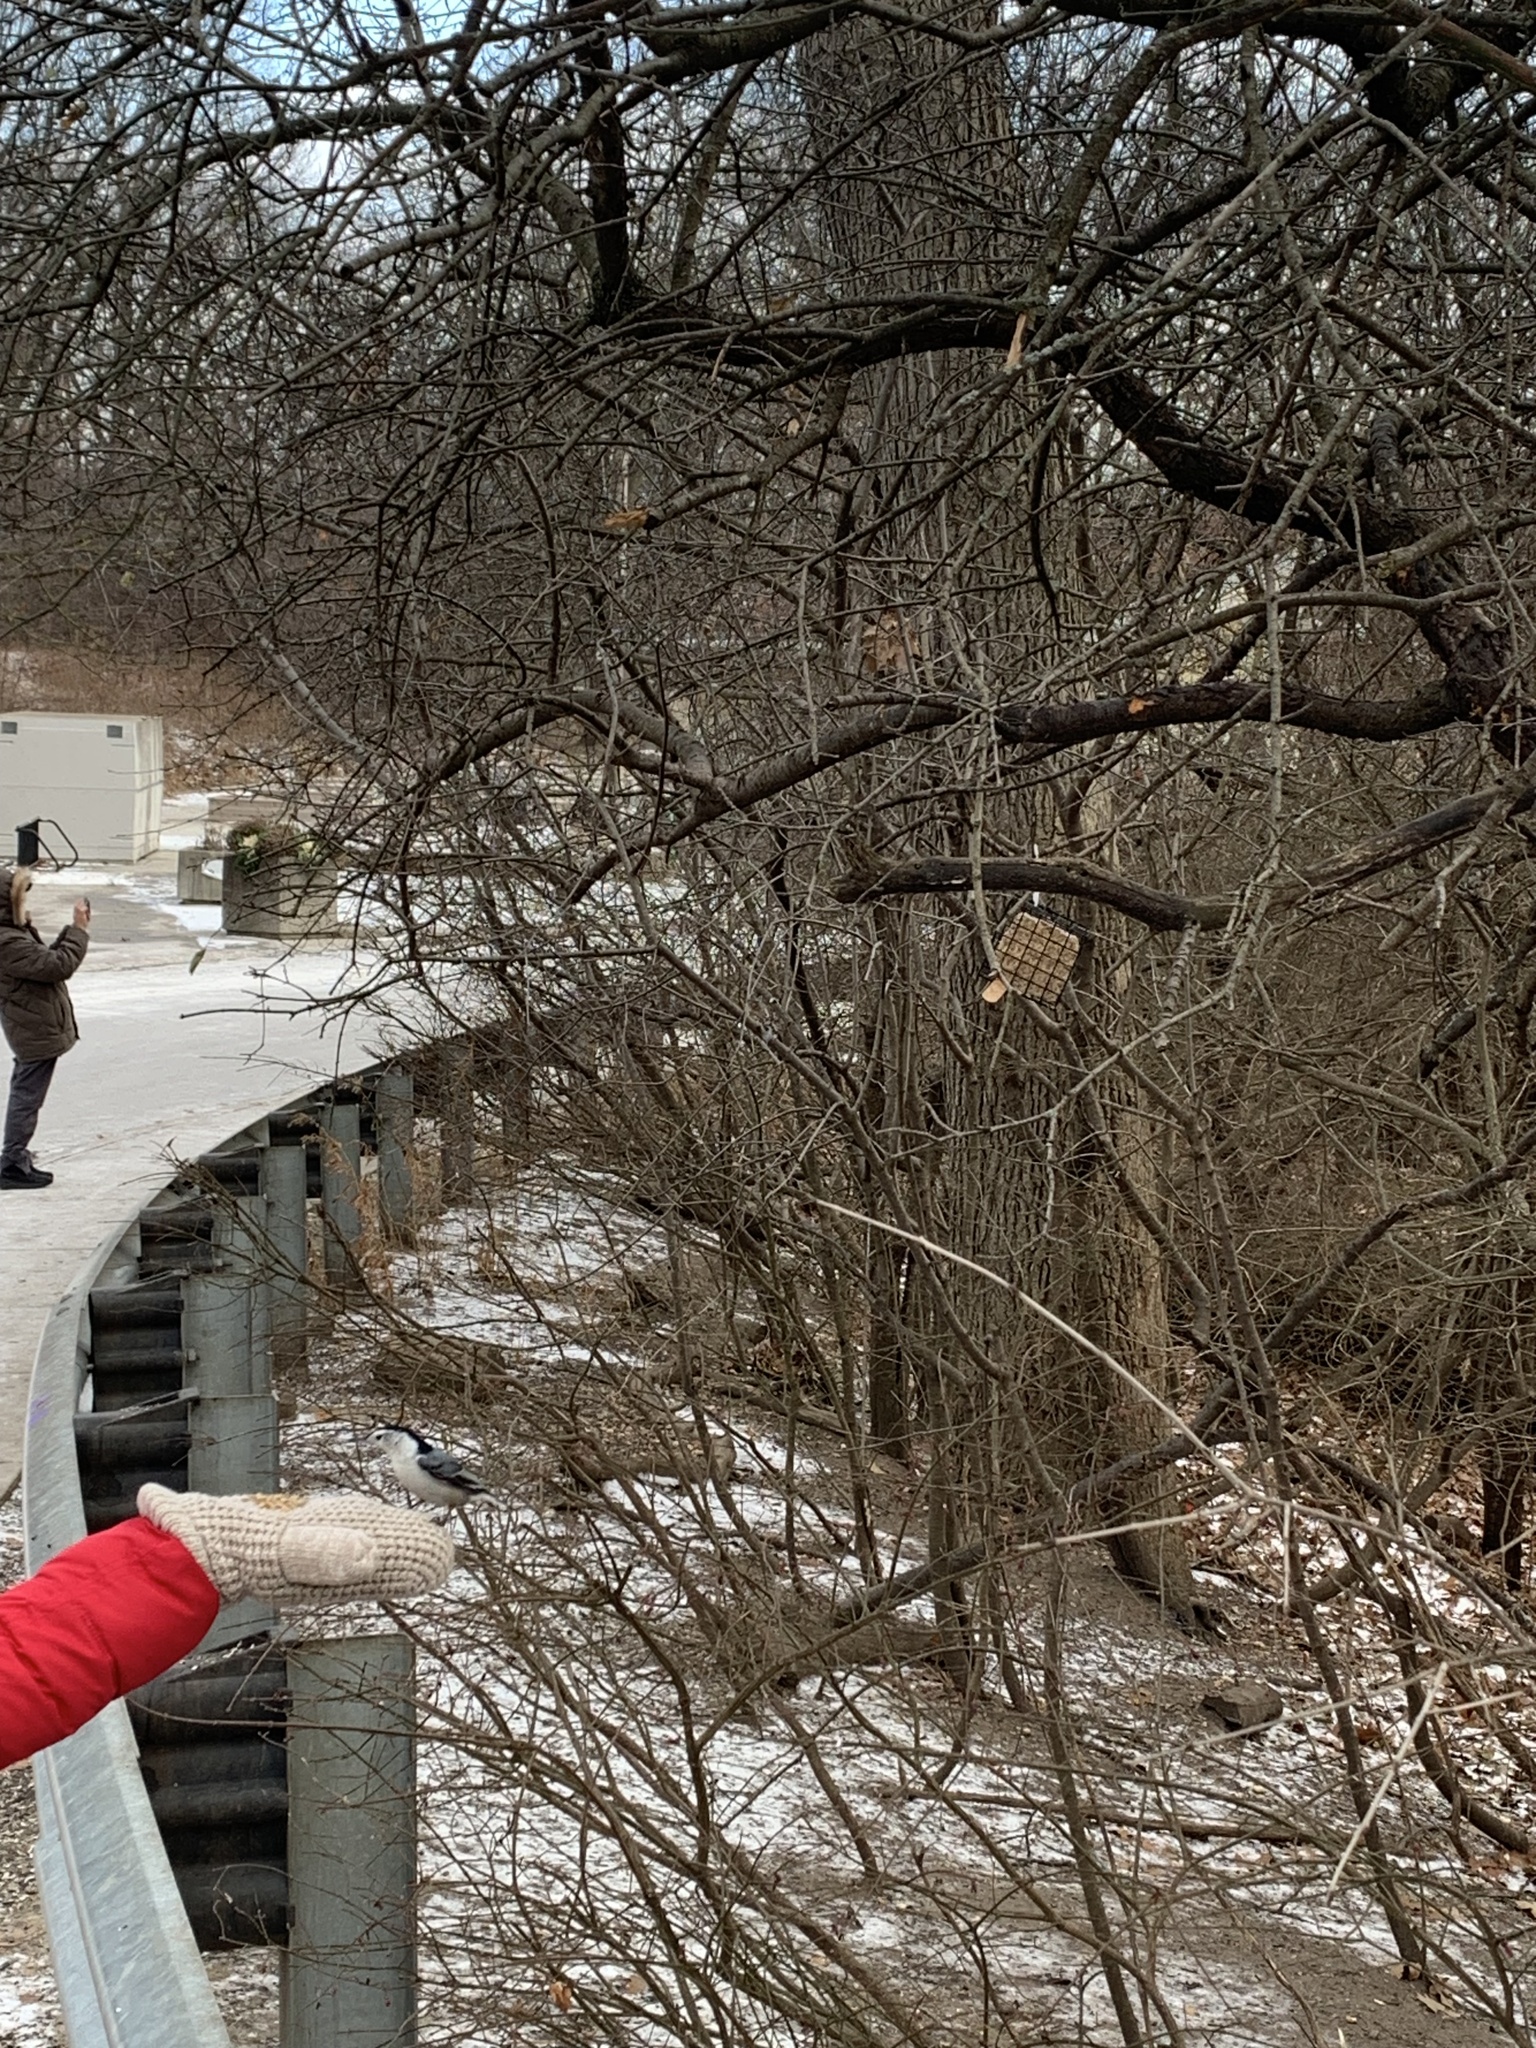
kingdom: Animalia
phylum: Chordata
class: Aves
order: Passeriformes
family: Sittidae
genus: Sitta
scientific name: Sitta carolinensis
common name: White-breasted nuthatch
